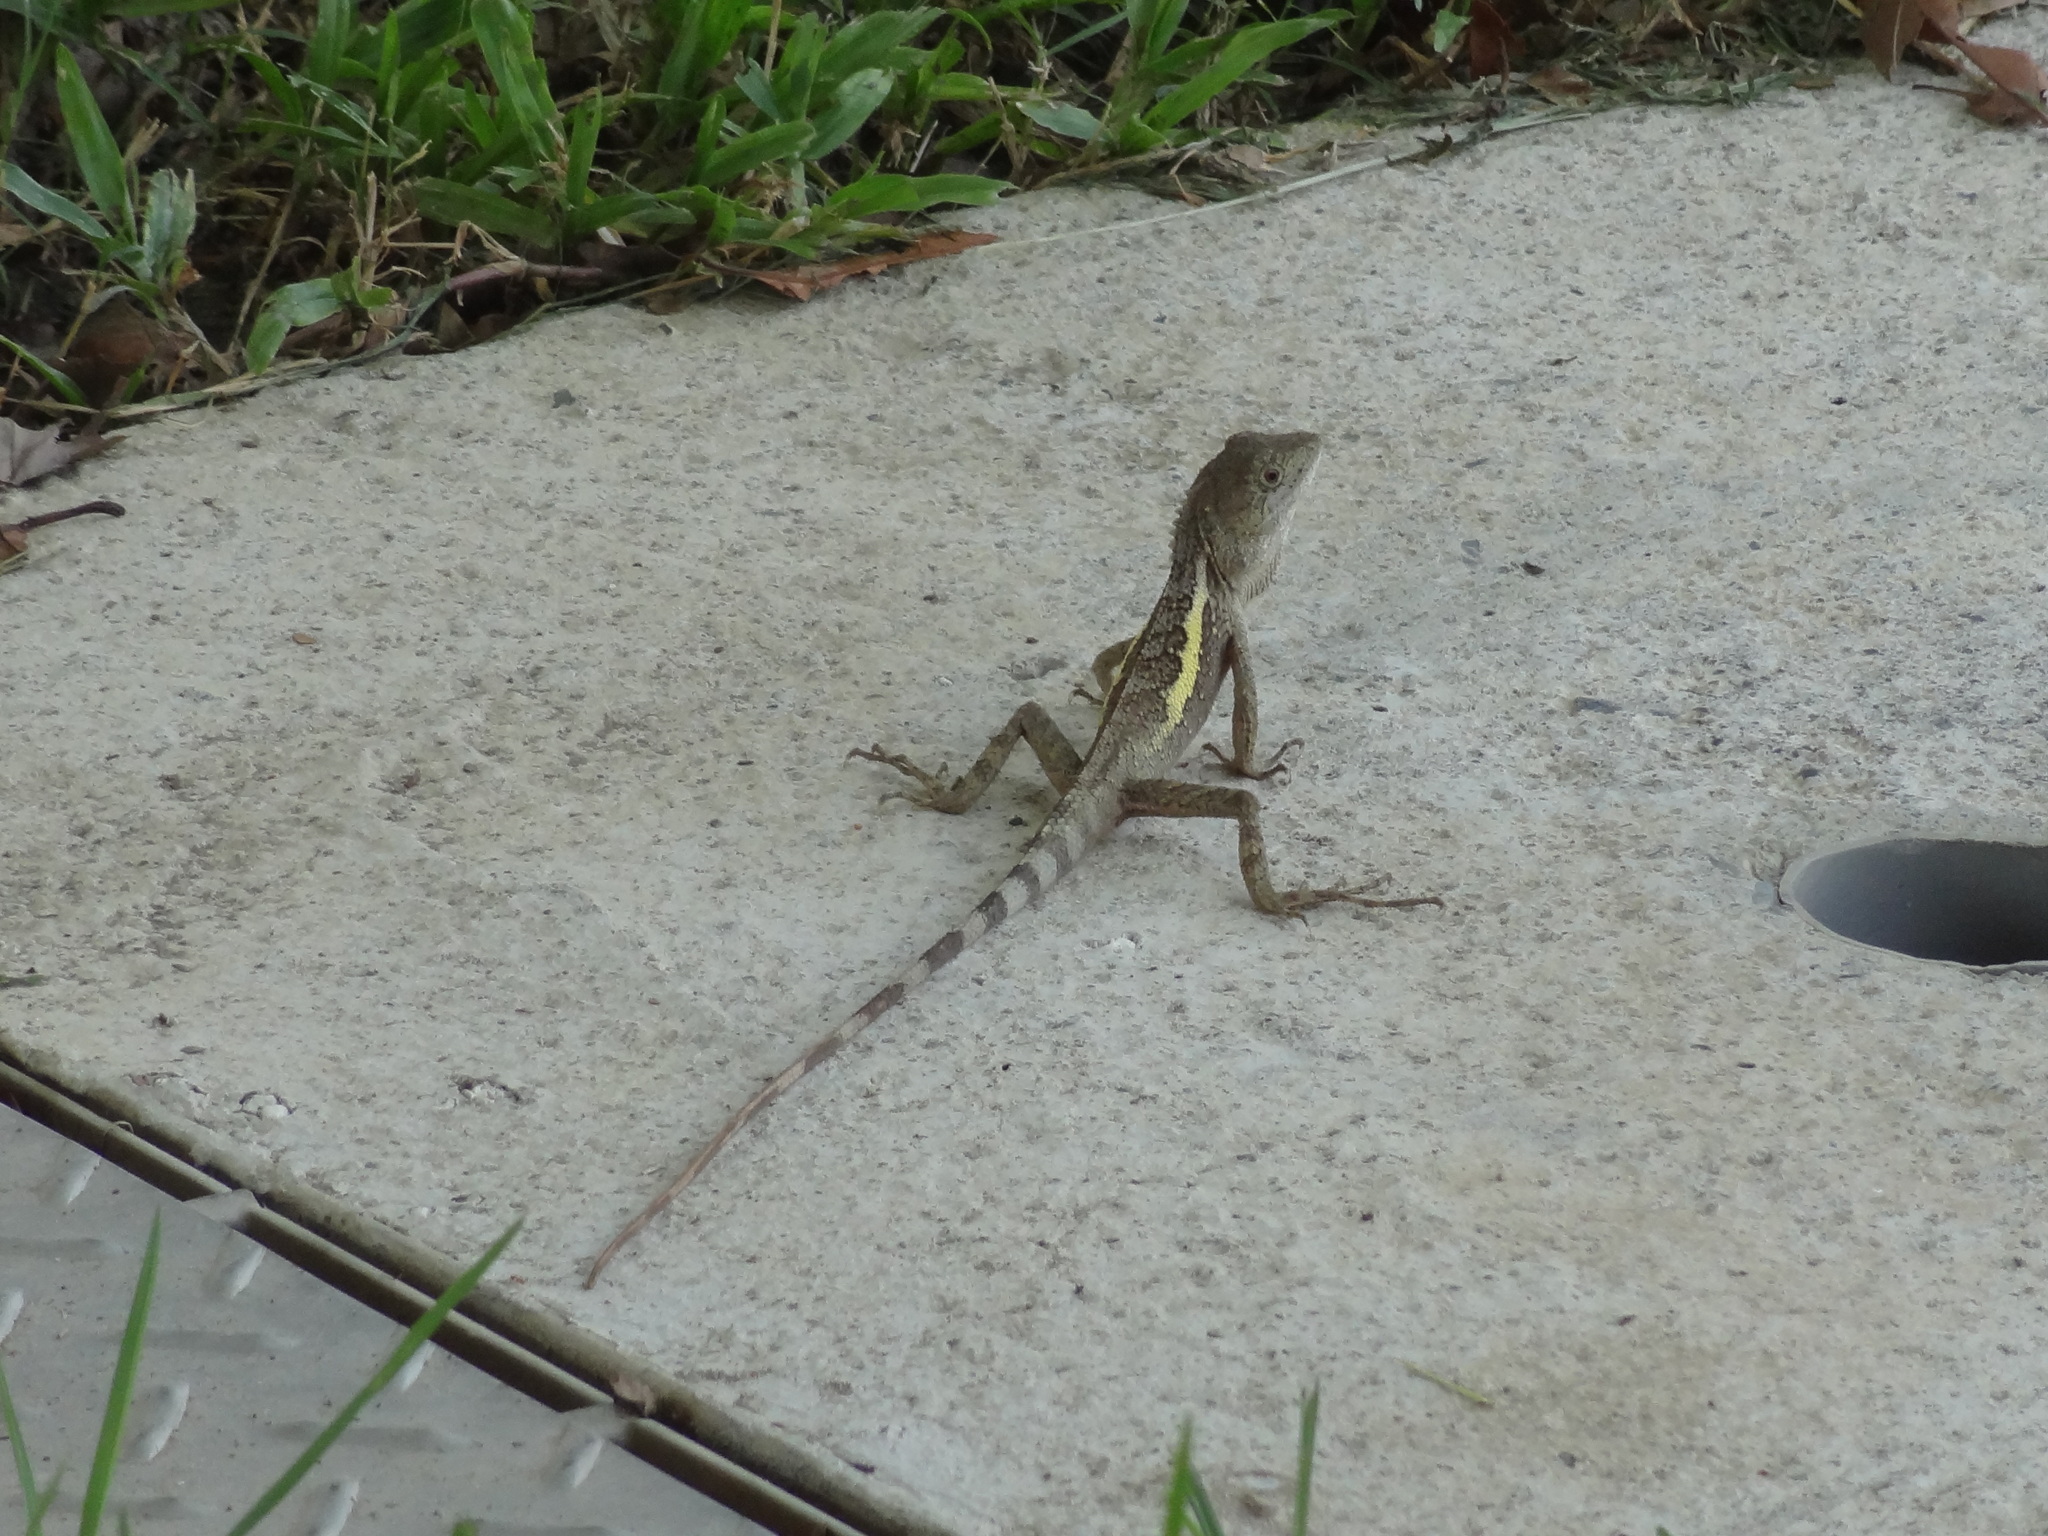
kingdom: Animalia
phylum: Chordata
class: Squamata
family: Agamidae
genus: Diploderma
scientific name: Diploderma swinhonis
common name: Taiwan japalure
